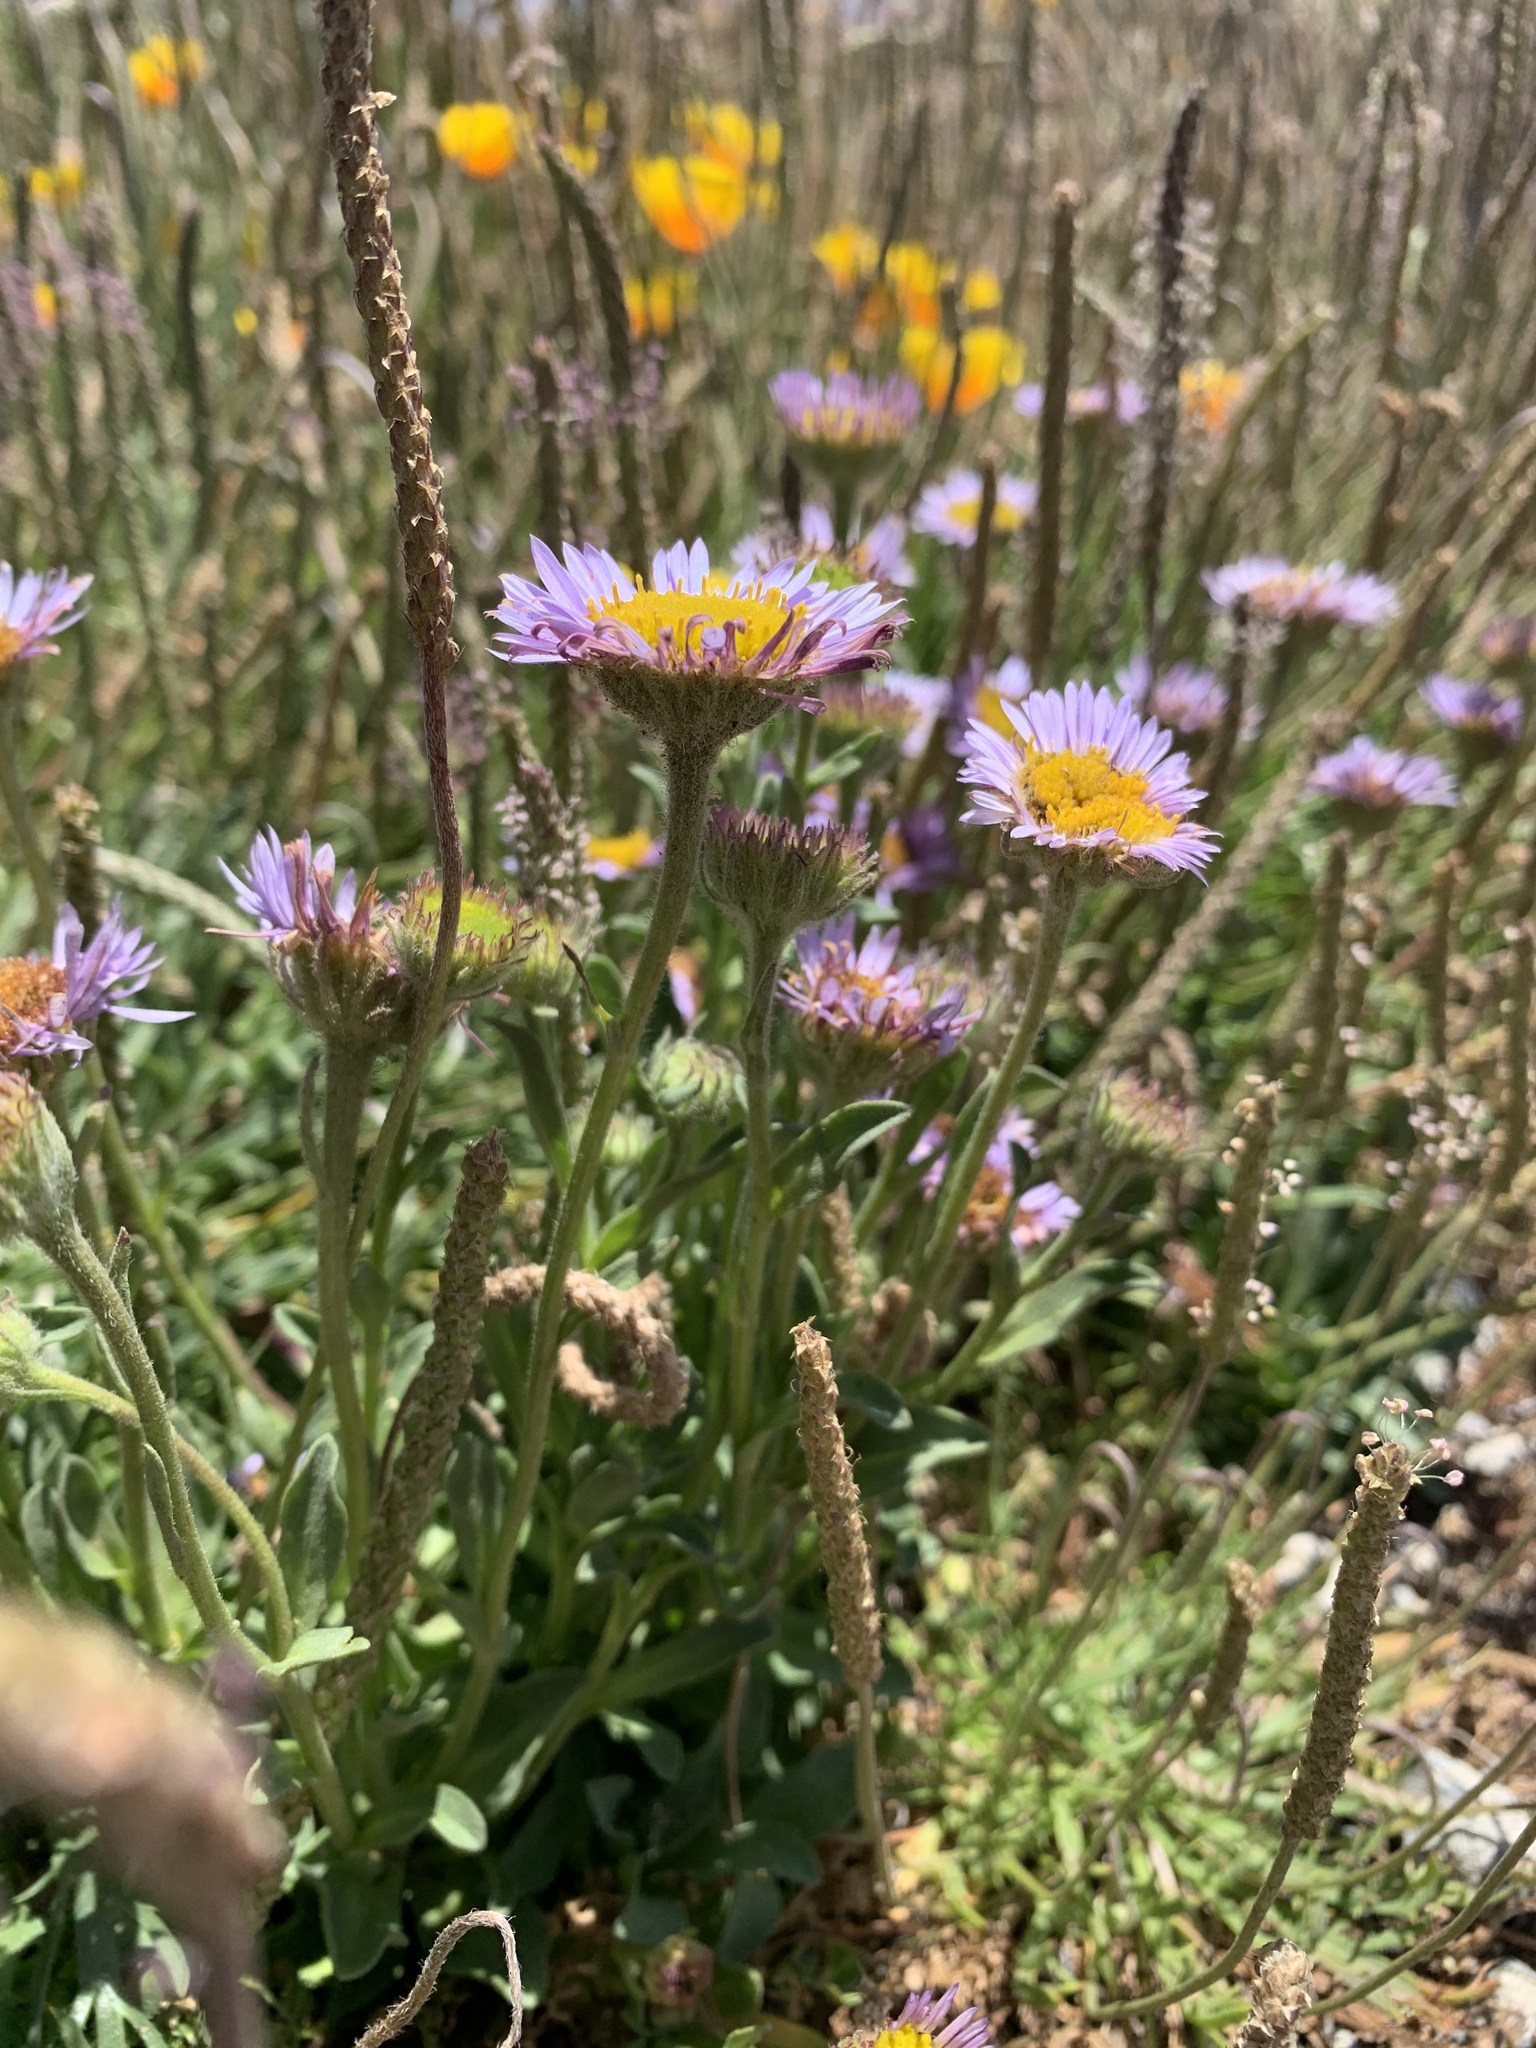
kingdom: Plantae
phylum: Tracheophyta
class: Magnoliopsida
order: Asterales
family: Asteraceae
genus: Erigeron
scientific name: Erigeron glaucus
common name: Seaside daisy
